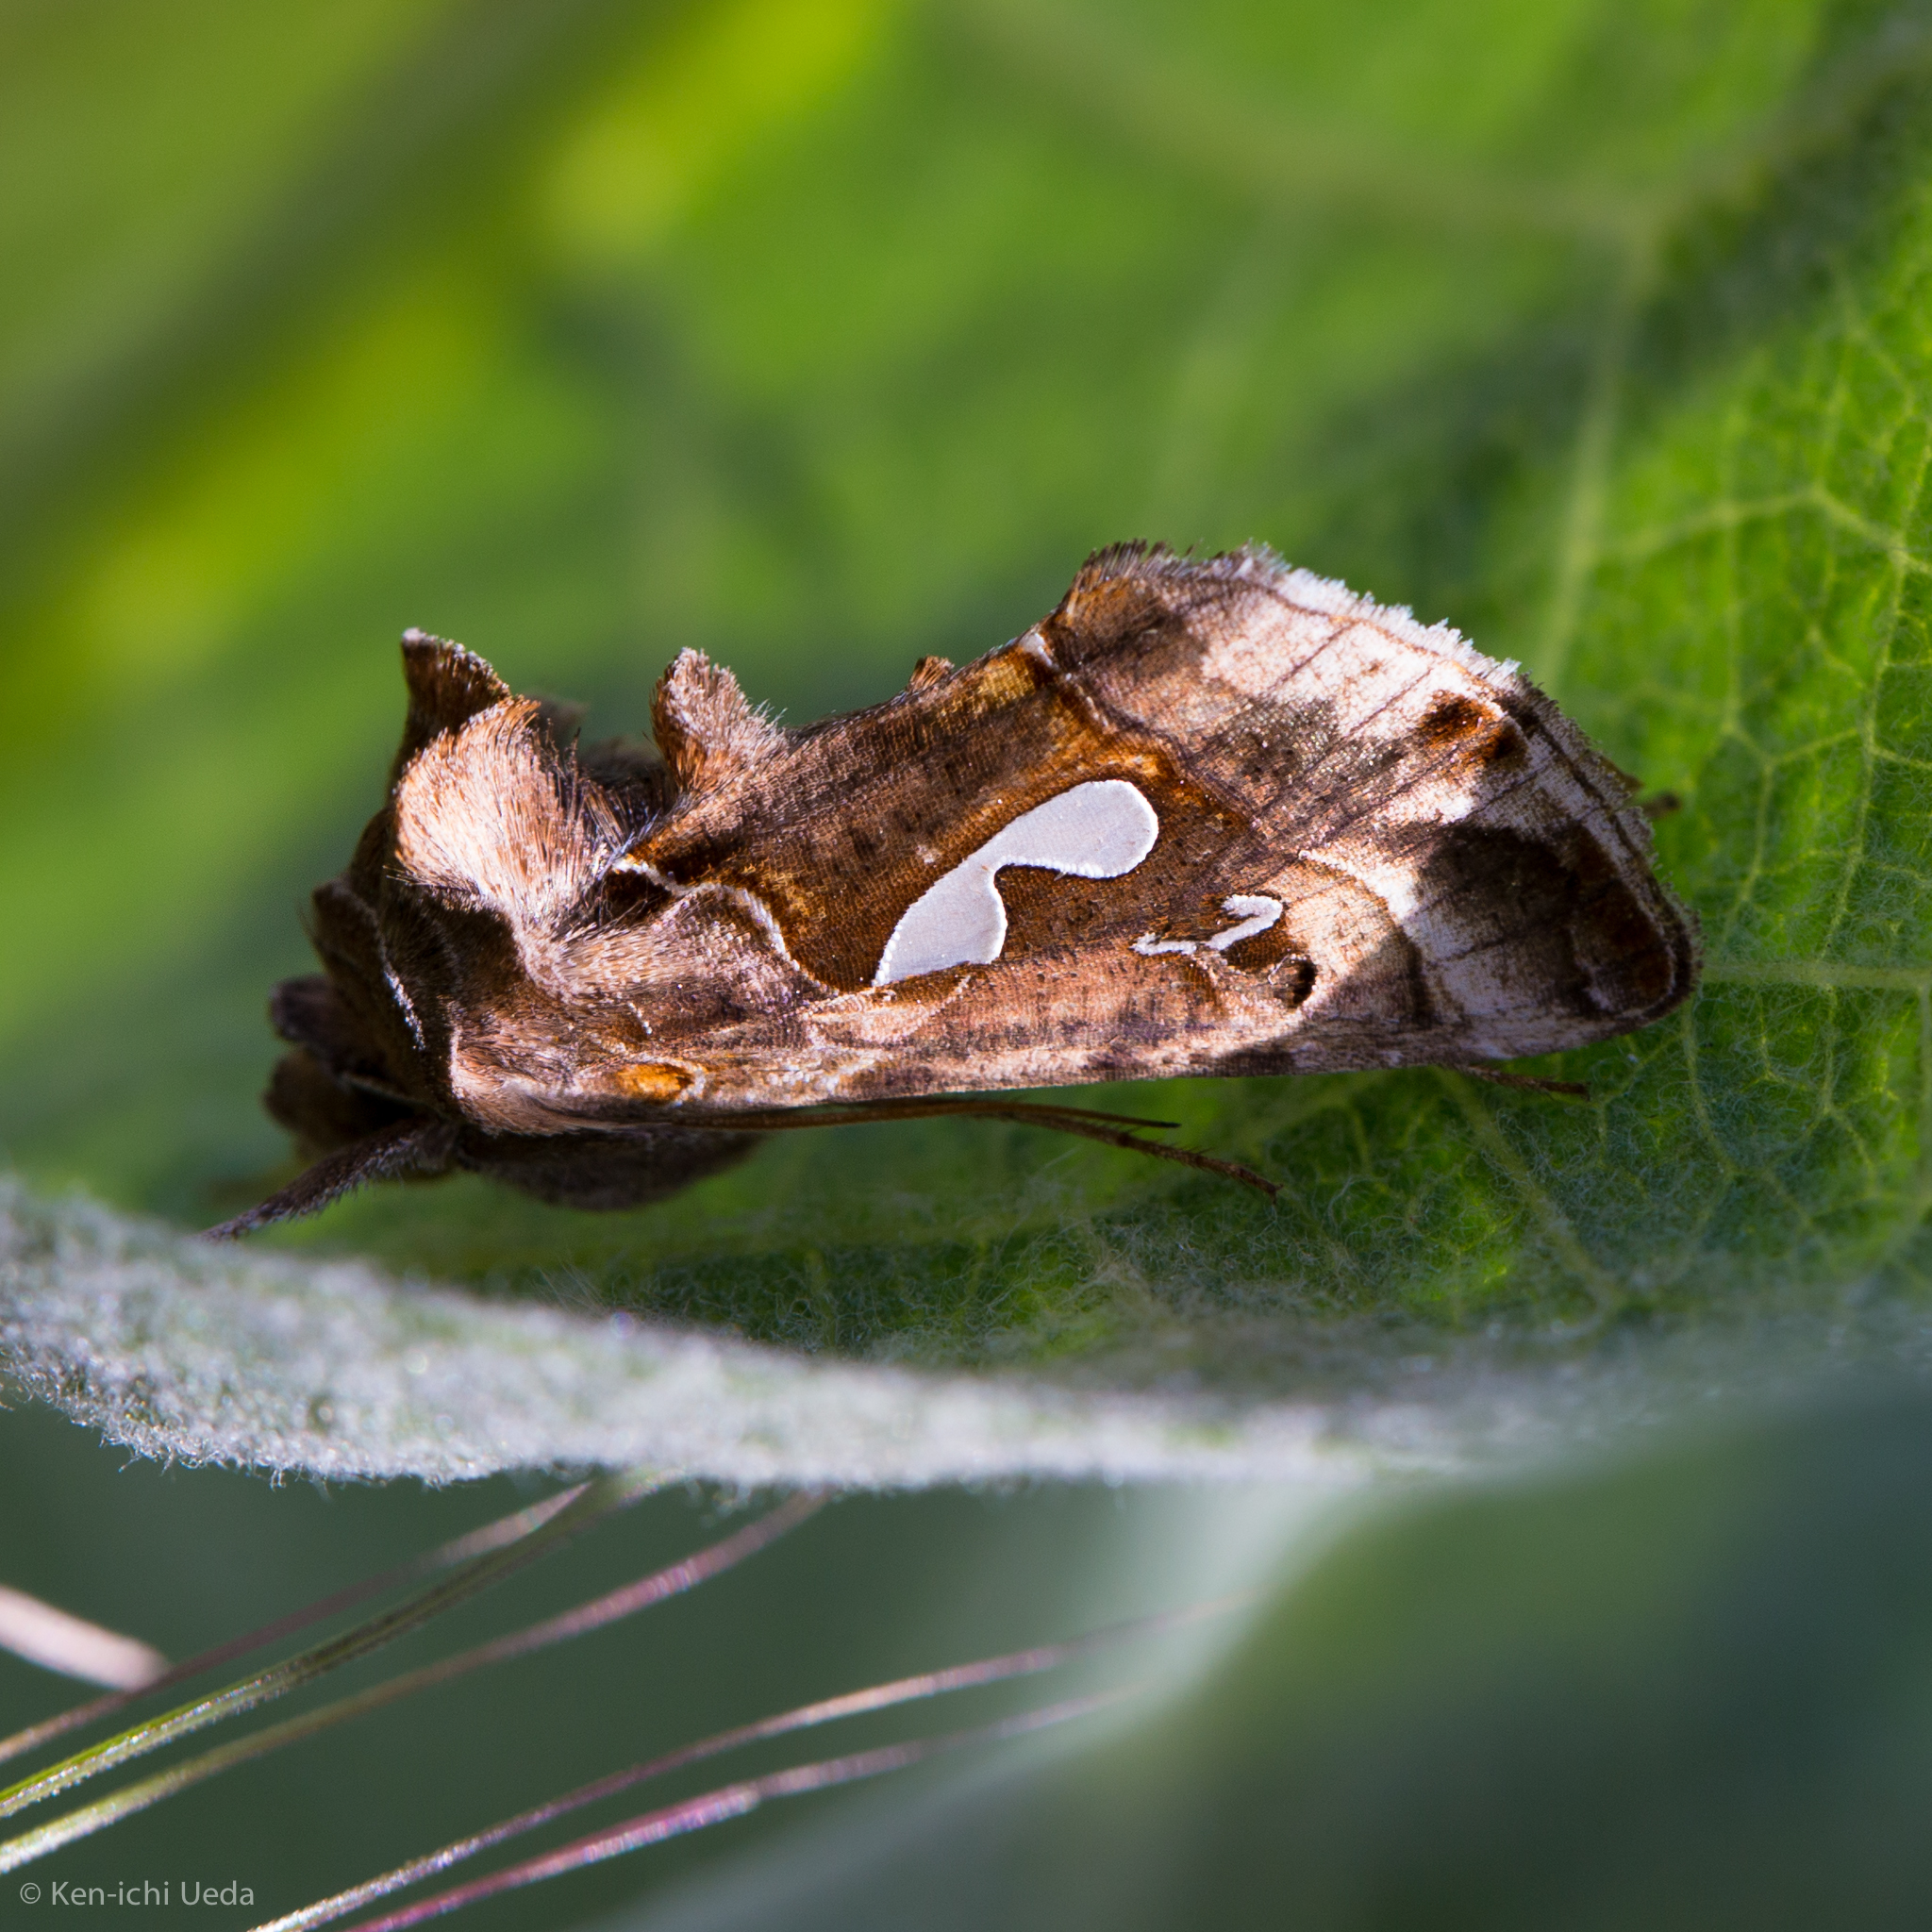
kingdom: Animalia
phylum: Arthropoda
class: Insecta
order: Lepidoptera
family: Noctuidae
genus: Megalographa
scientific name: Megalographa biloba
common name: Cutworm
